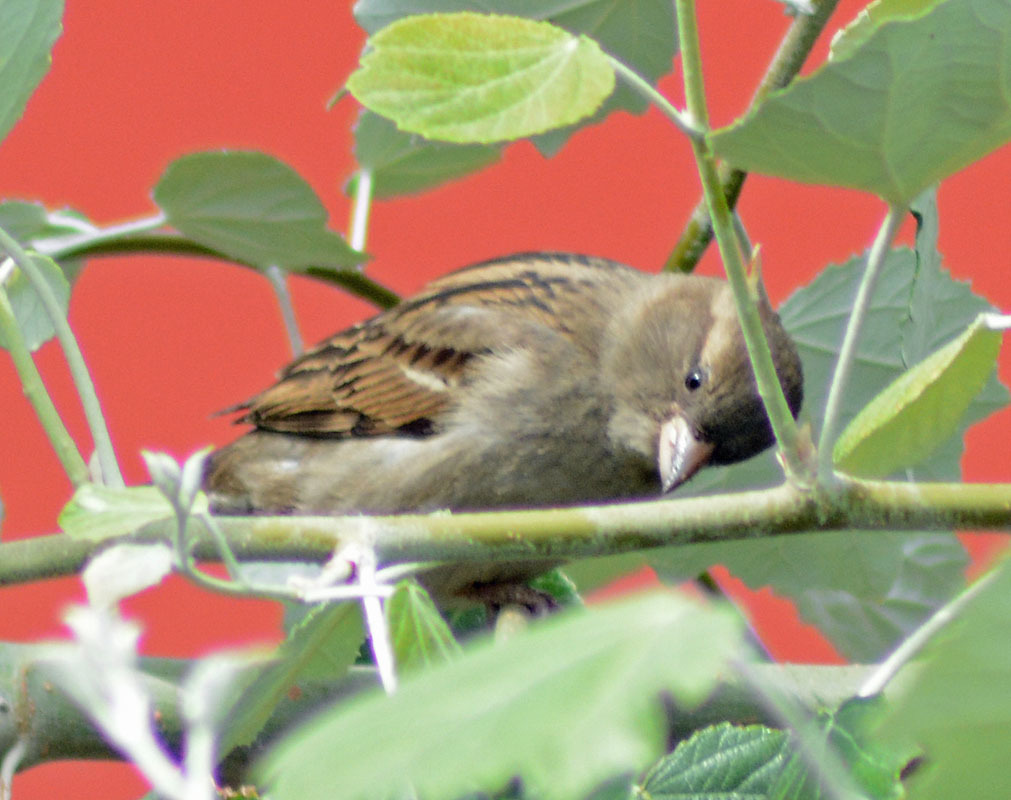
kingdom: Animalia
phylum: Chordata
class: Aves
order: Passeriformes
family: Passeridae
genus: Passer
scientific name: Passer domesticus
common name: House sparrow
